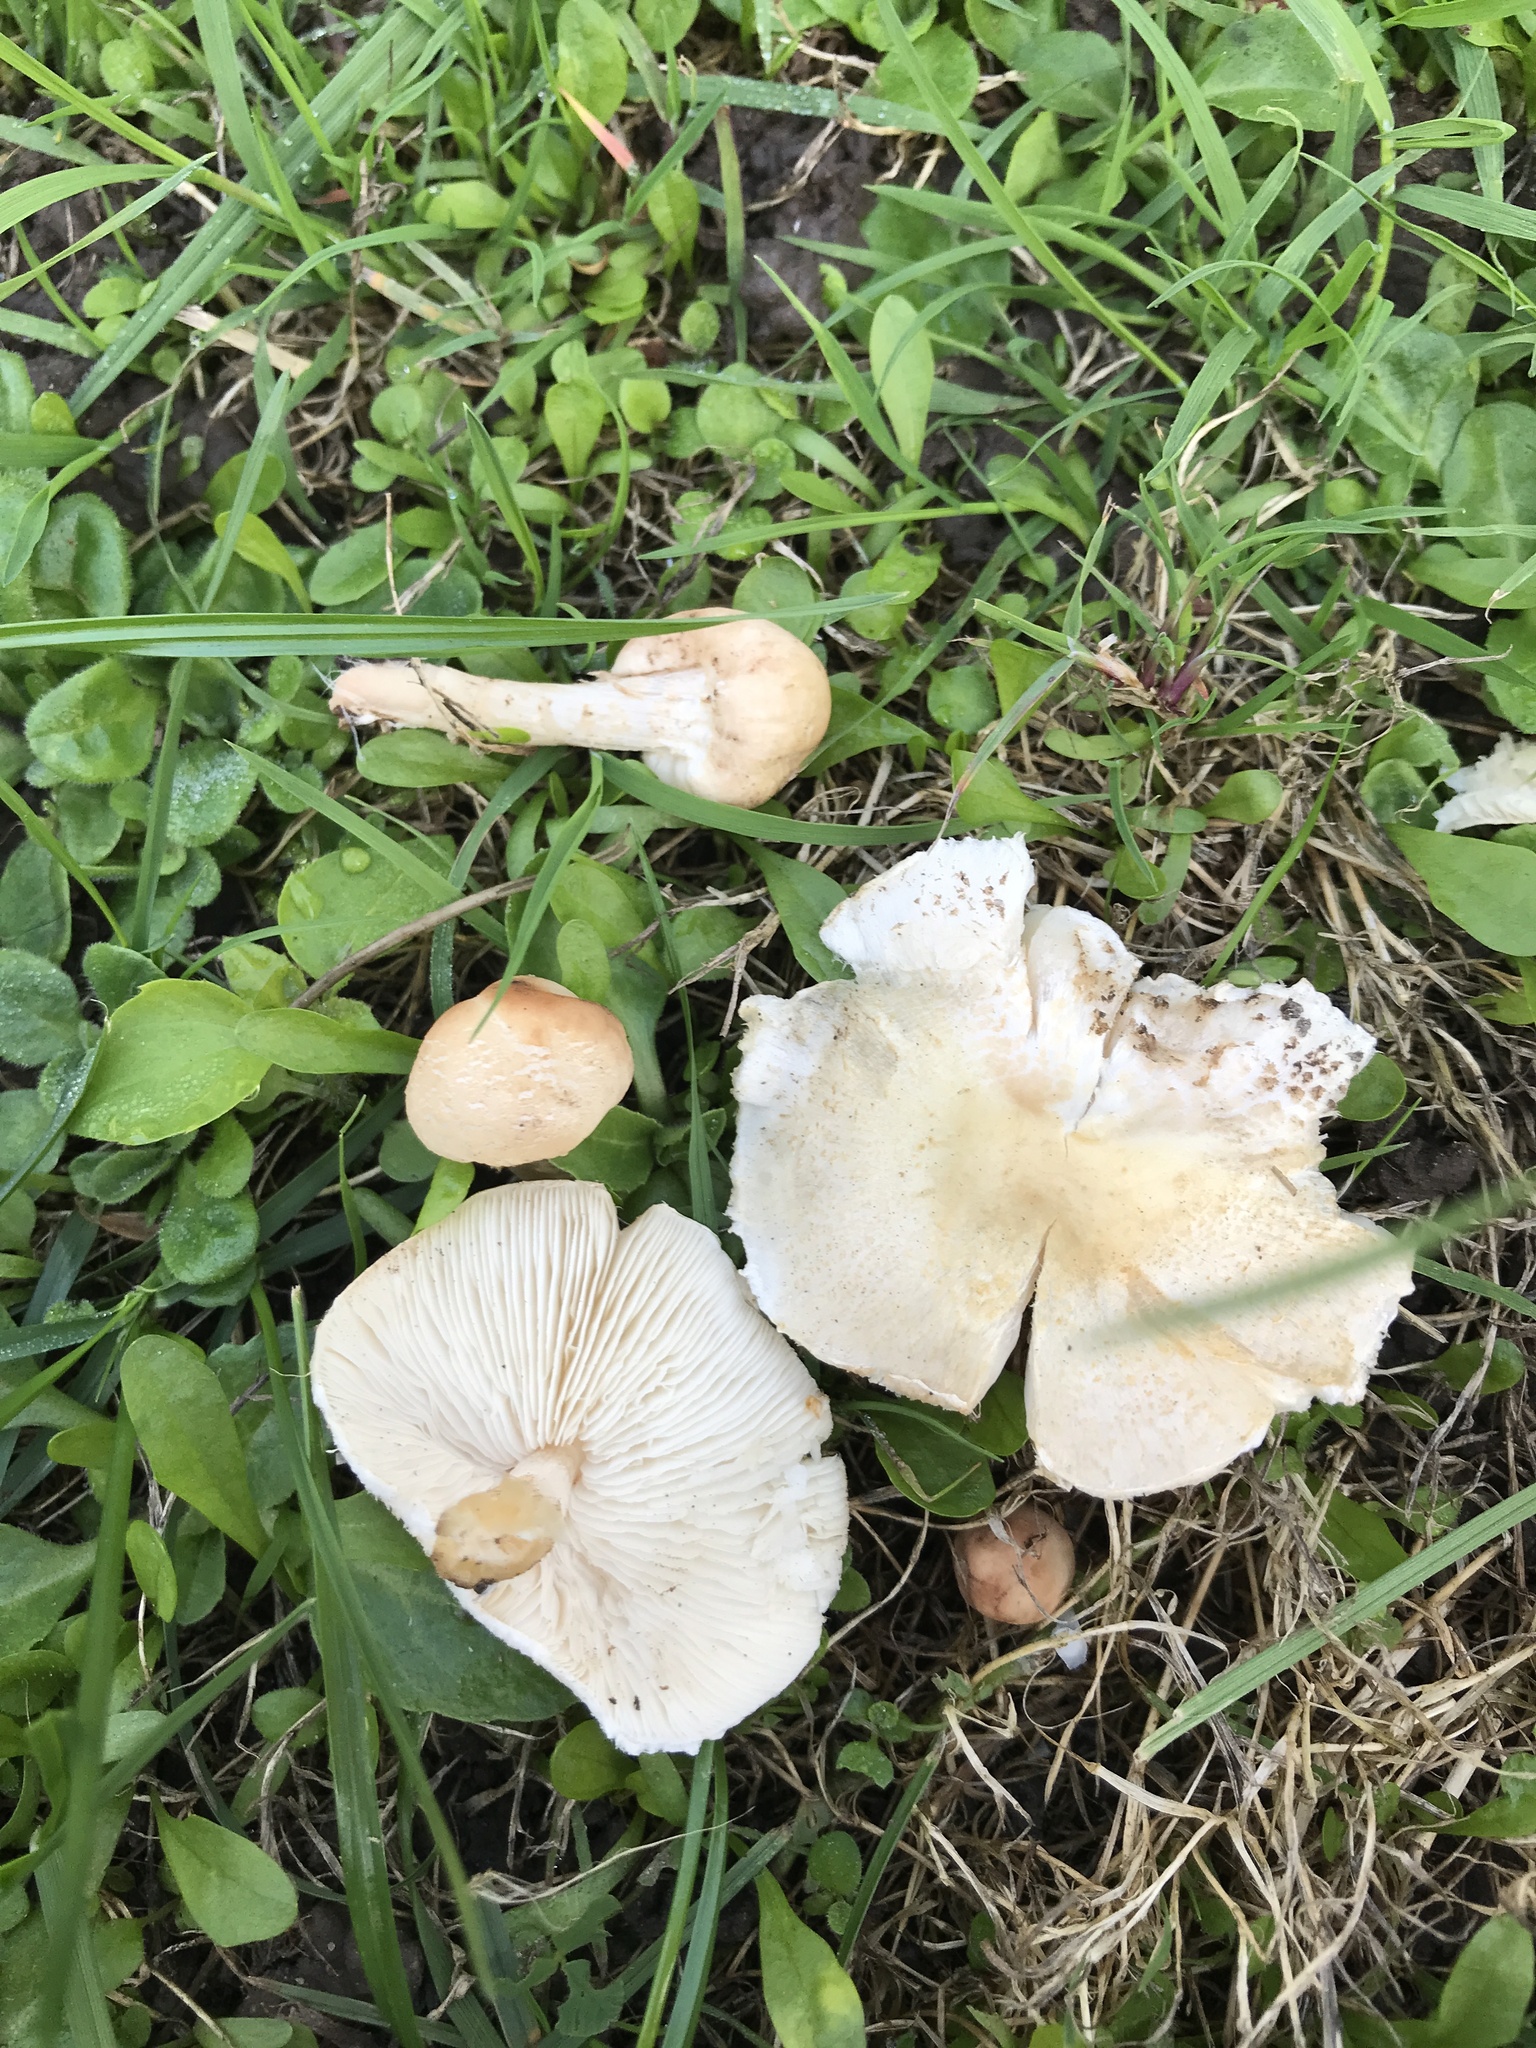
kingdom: Fungi
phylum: Basidiomycota
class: Agaricomycetes
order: Agaricales
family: Agaricaceae
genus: Lepiota
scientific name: Lepiota oreadiformis
